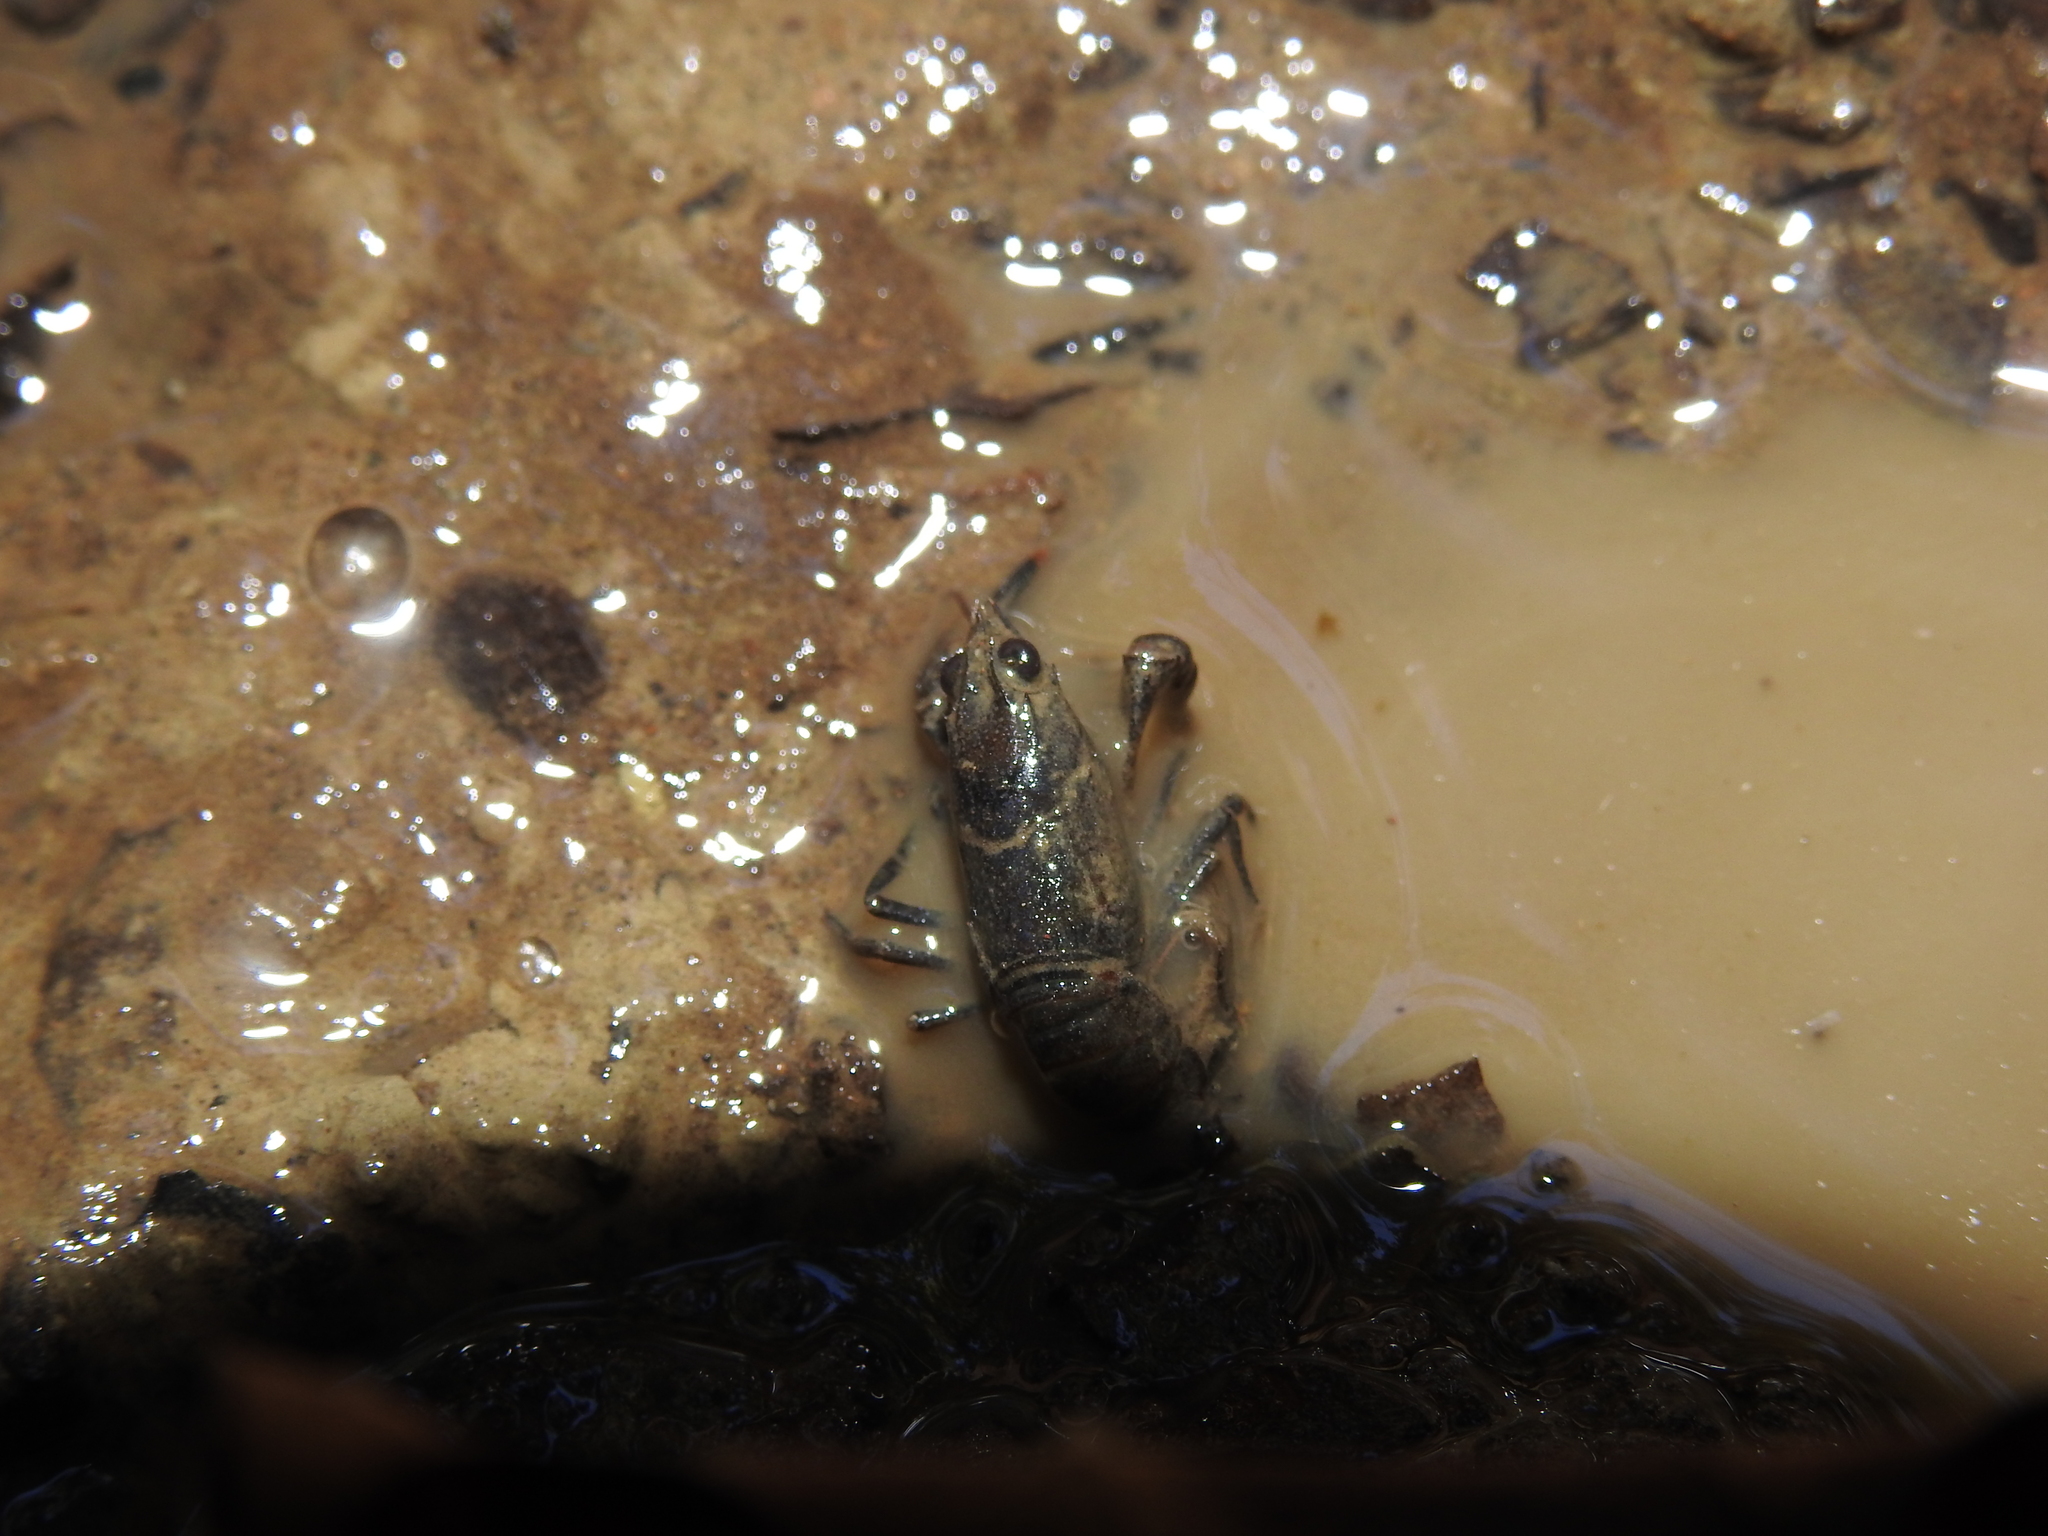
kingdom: Animalia
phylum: Arthropoda
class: Malacostraca
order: Decapoda
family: Cambaridae
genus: Faxonius
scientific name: Faxonius rusticus
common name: Rusty crayfish
